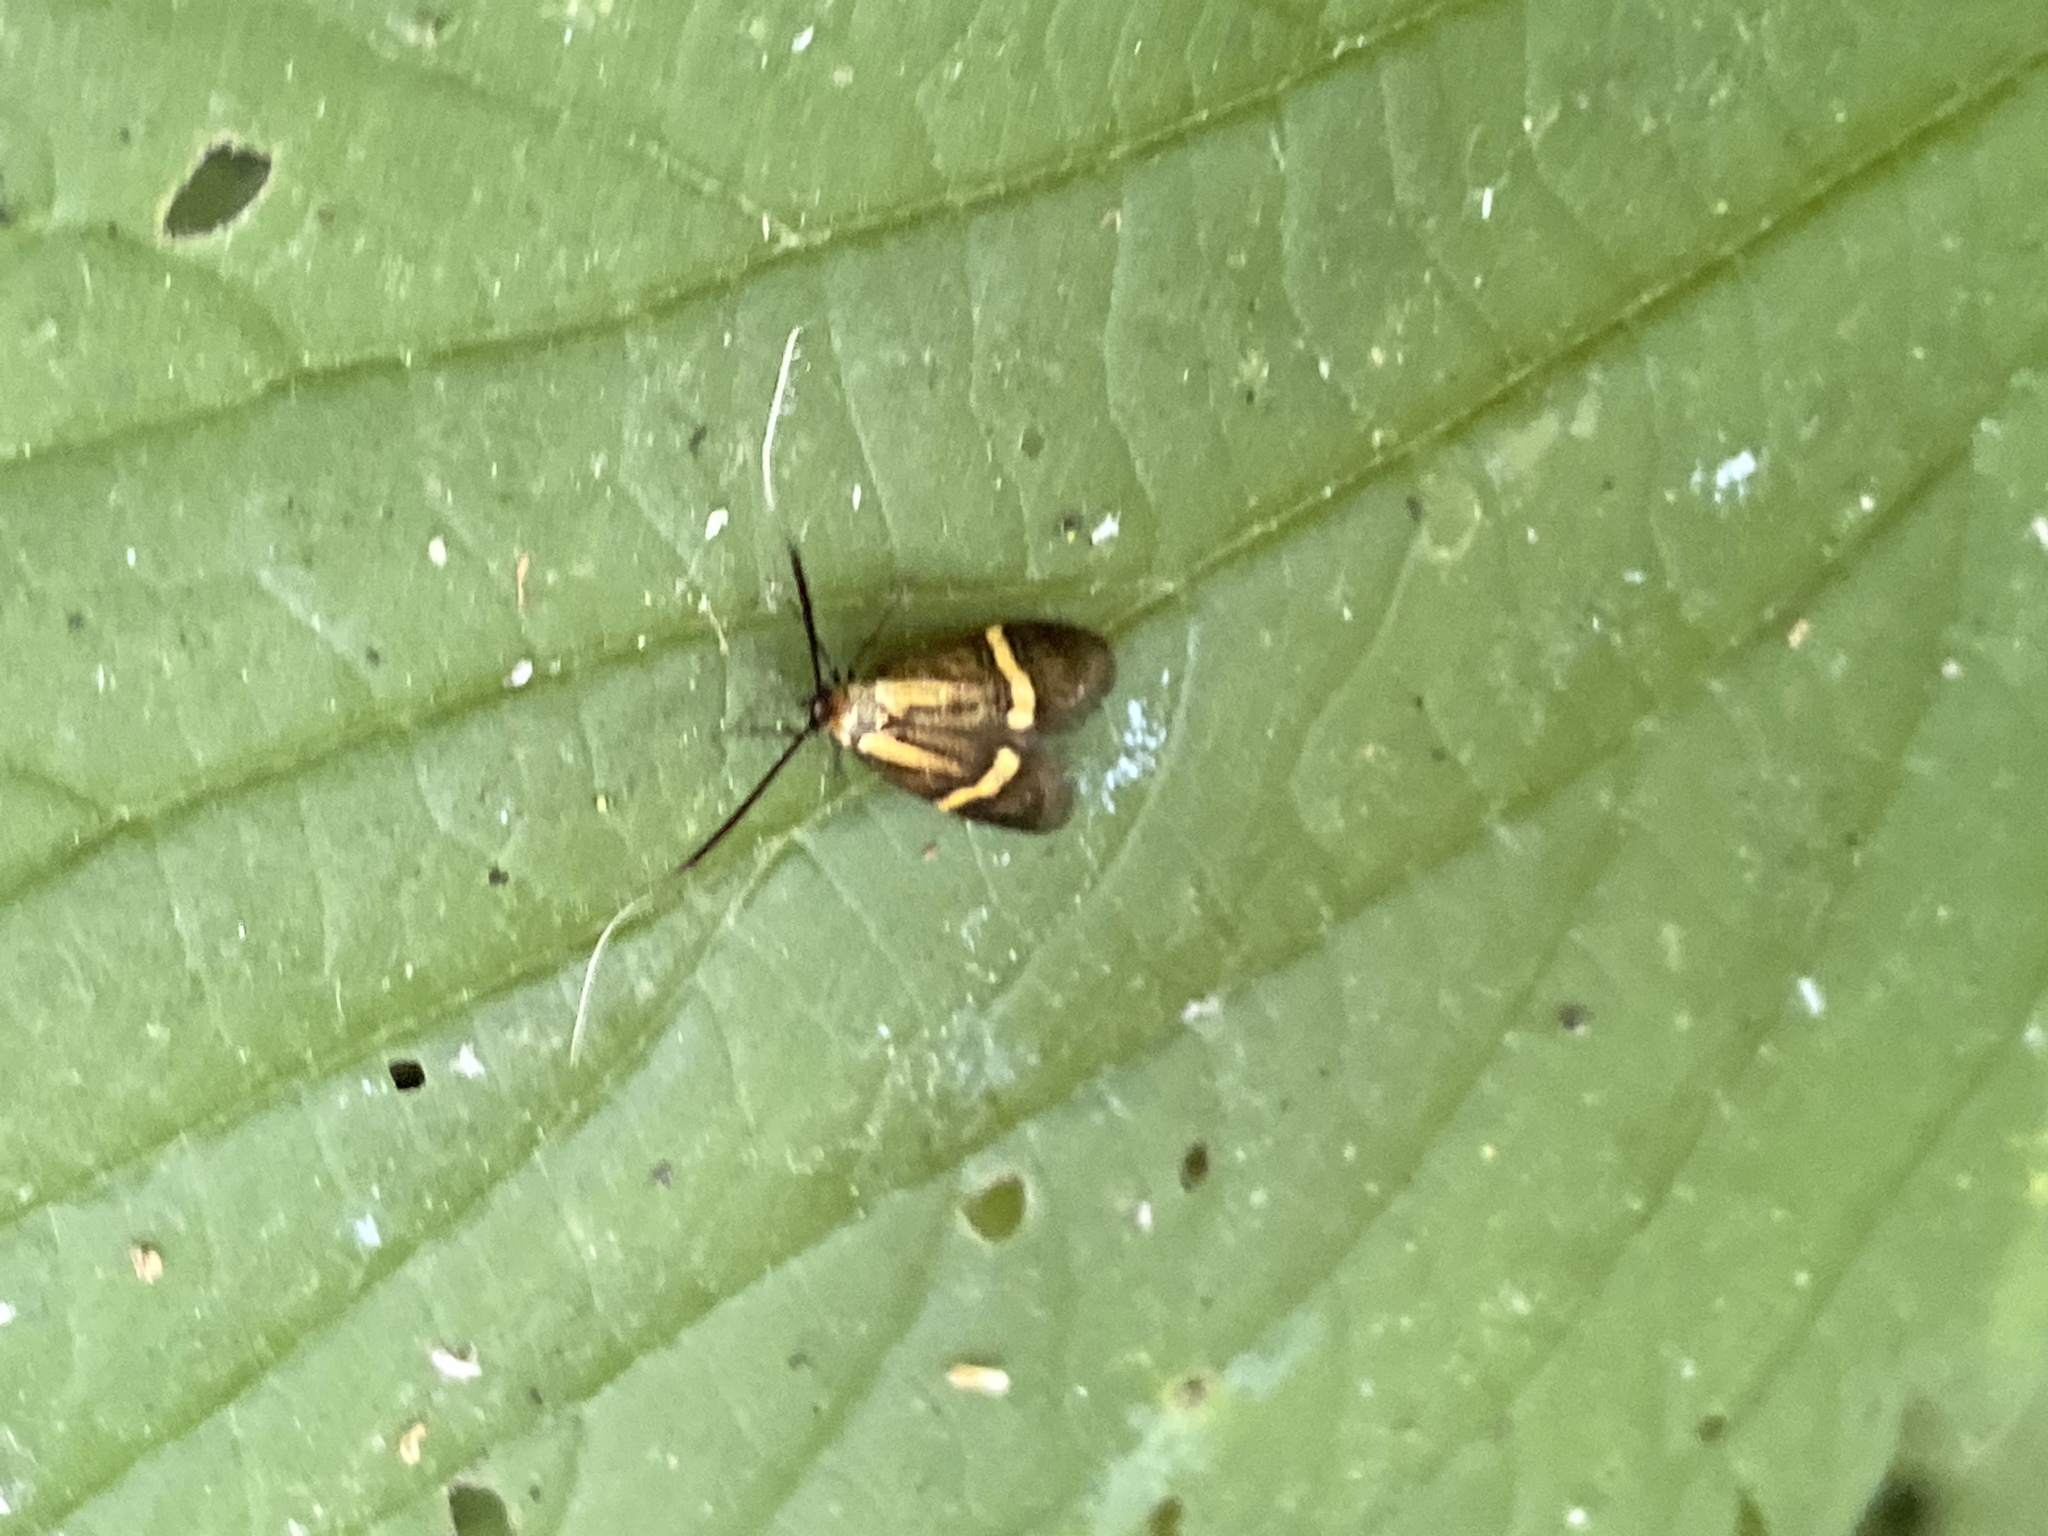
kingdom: Animalia
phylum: Arthropoda
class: Insecta
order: Lepidoptera
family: Adelidae
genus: Nemophora
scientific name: Nemophora degeerella
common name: Yellow-barred long-horn
